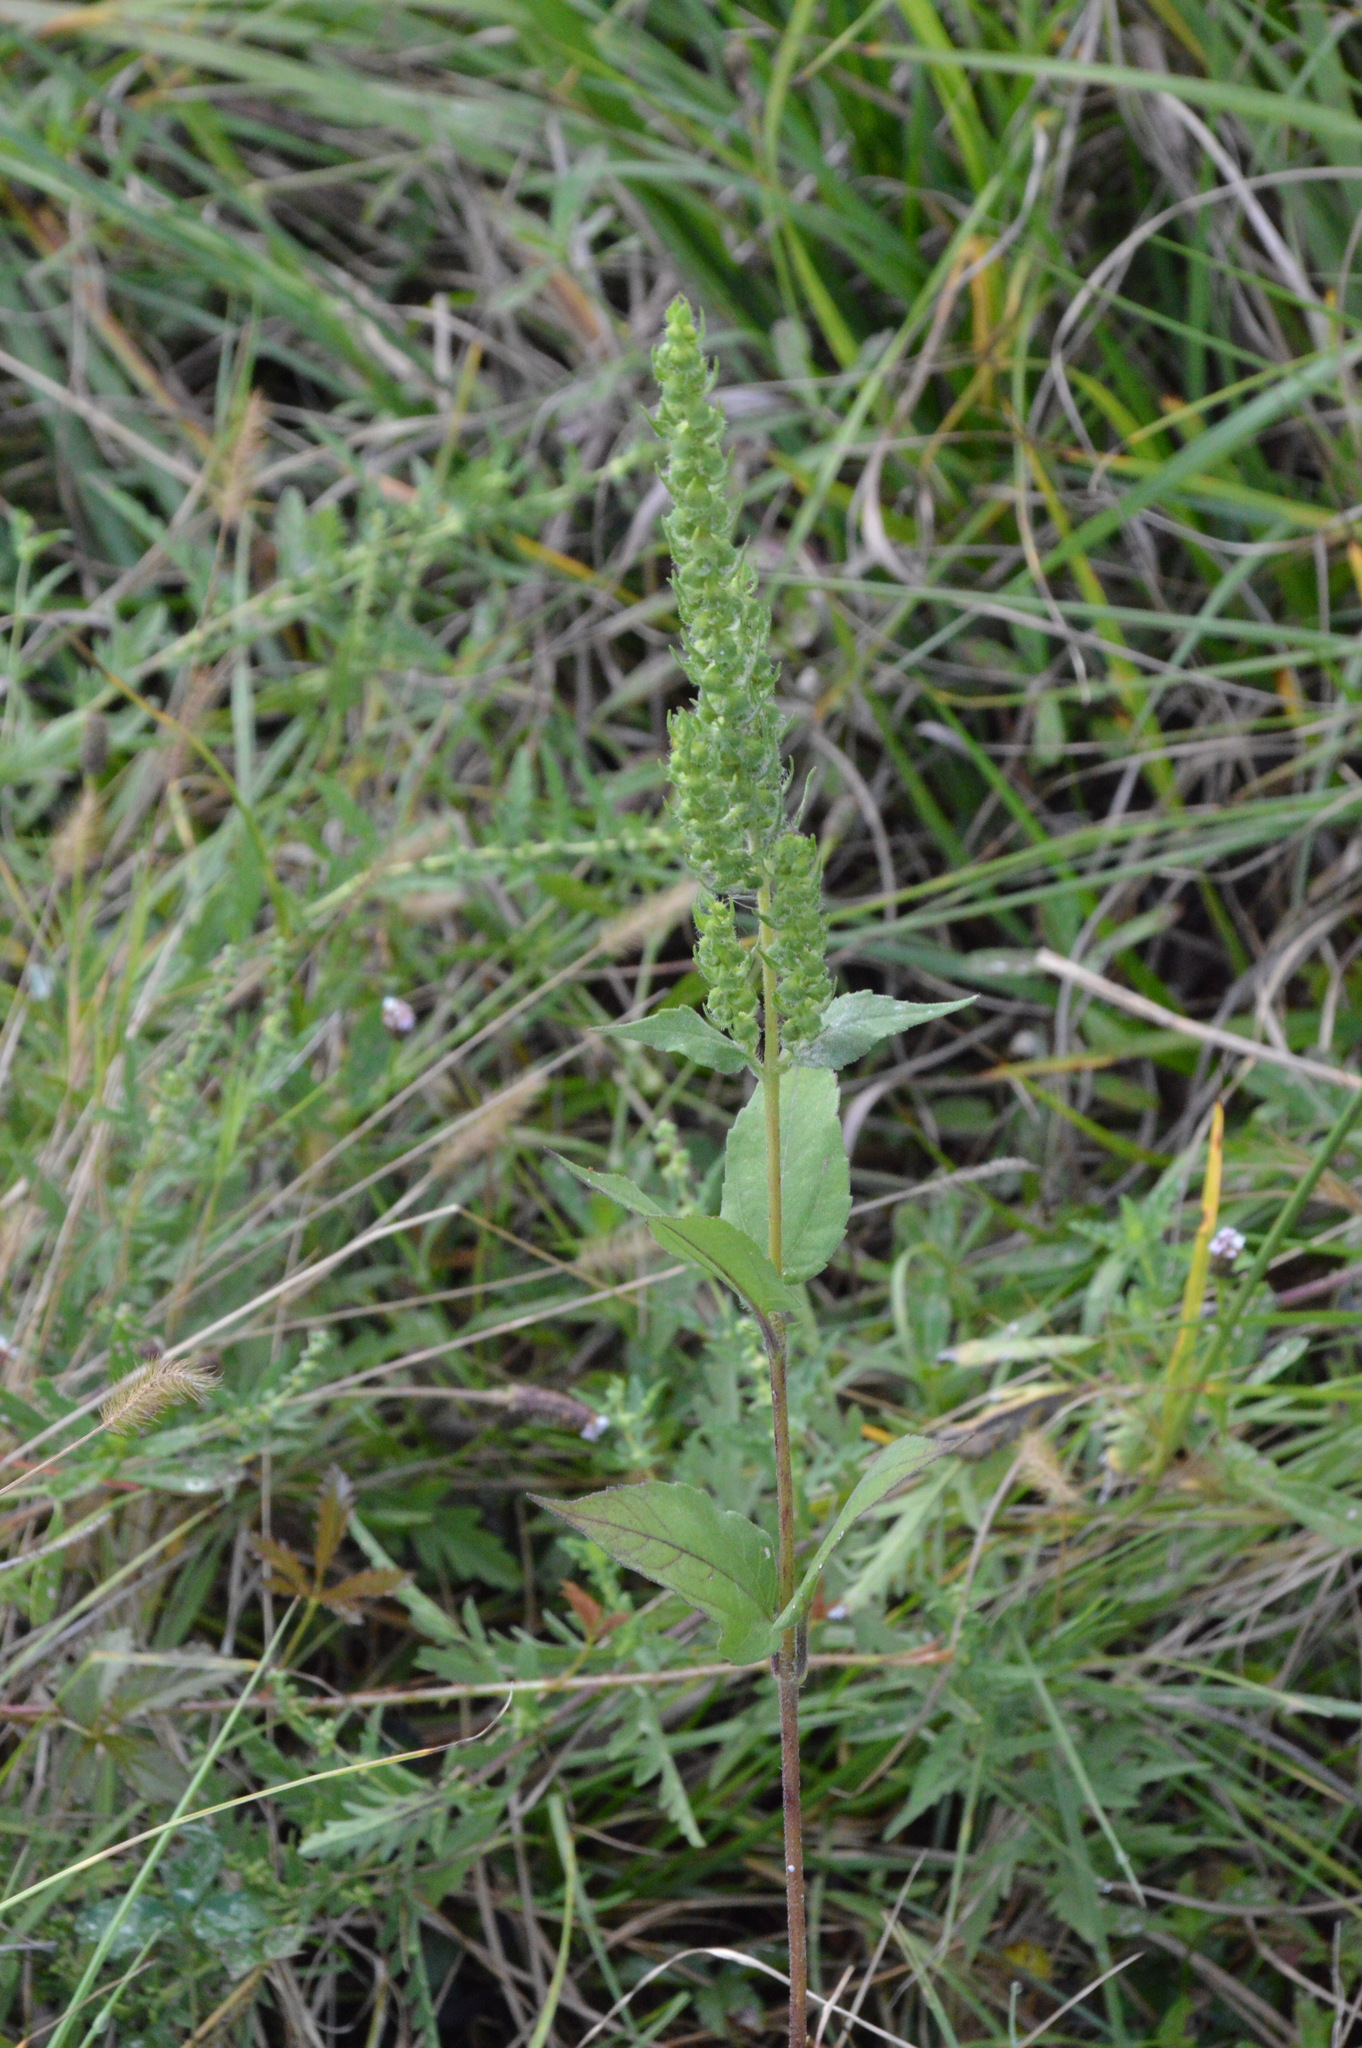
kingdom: Plantae
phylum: Tracheophyta
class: Magnoliopsida
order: Asterales
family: Asteraceae
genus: Iva
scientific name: Iva annua
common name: Marsh-elder
